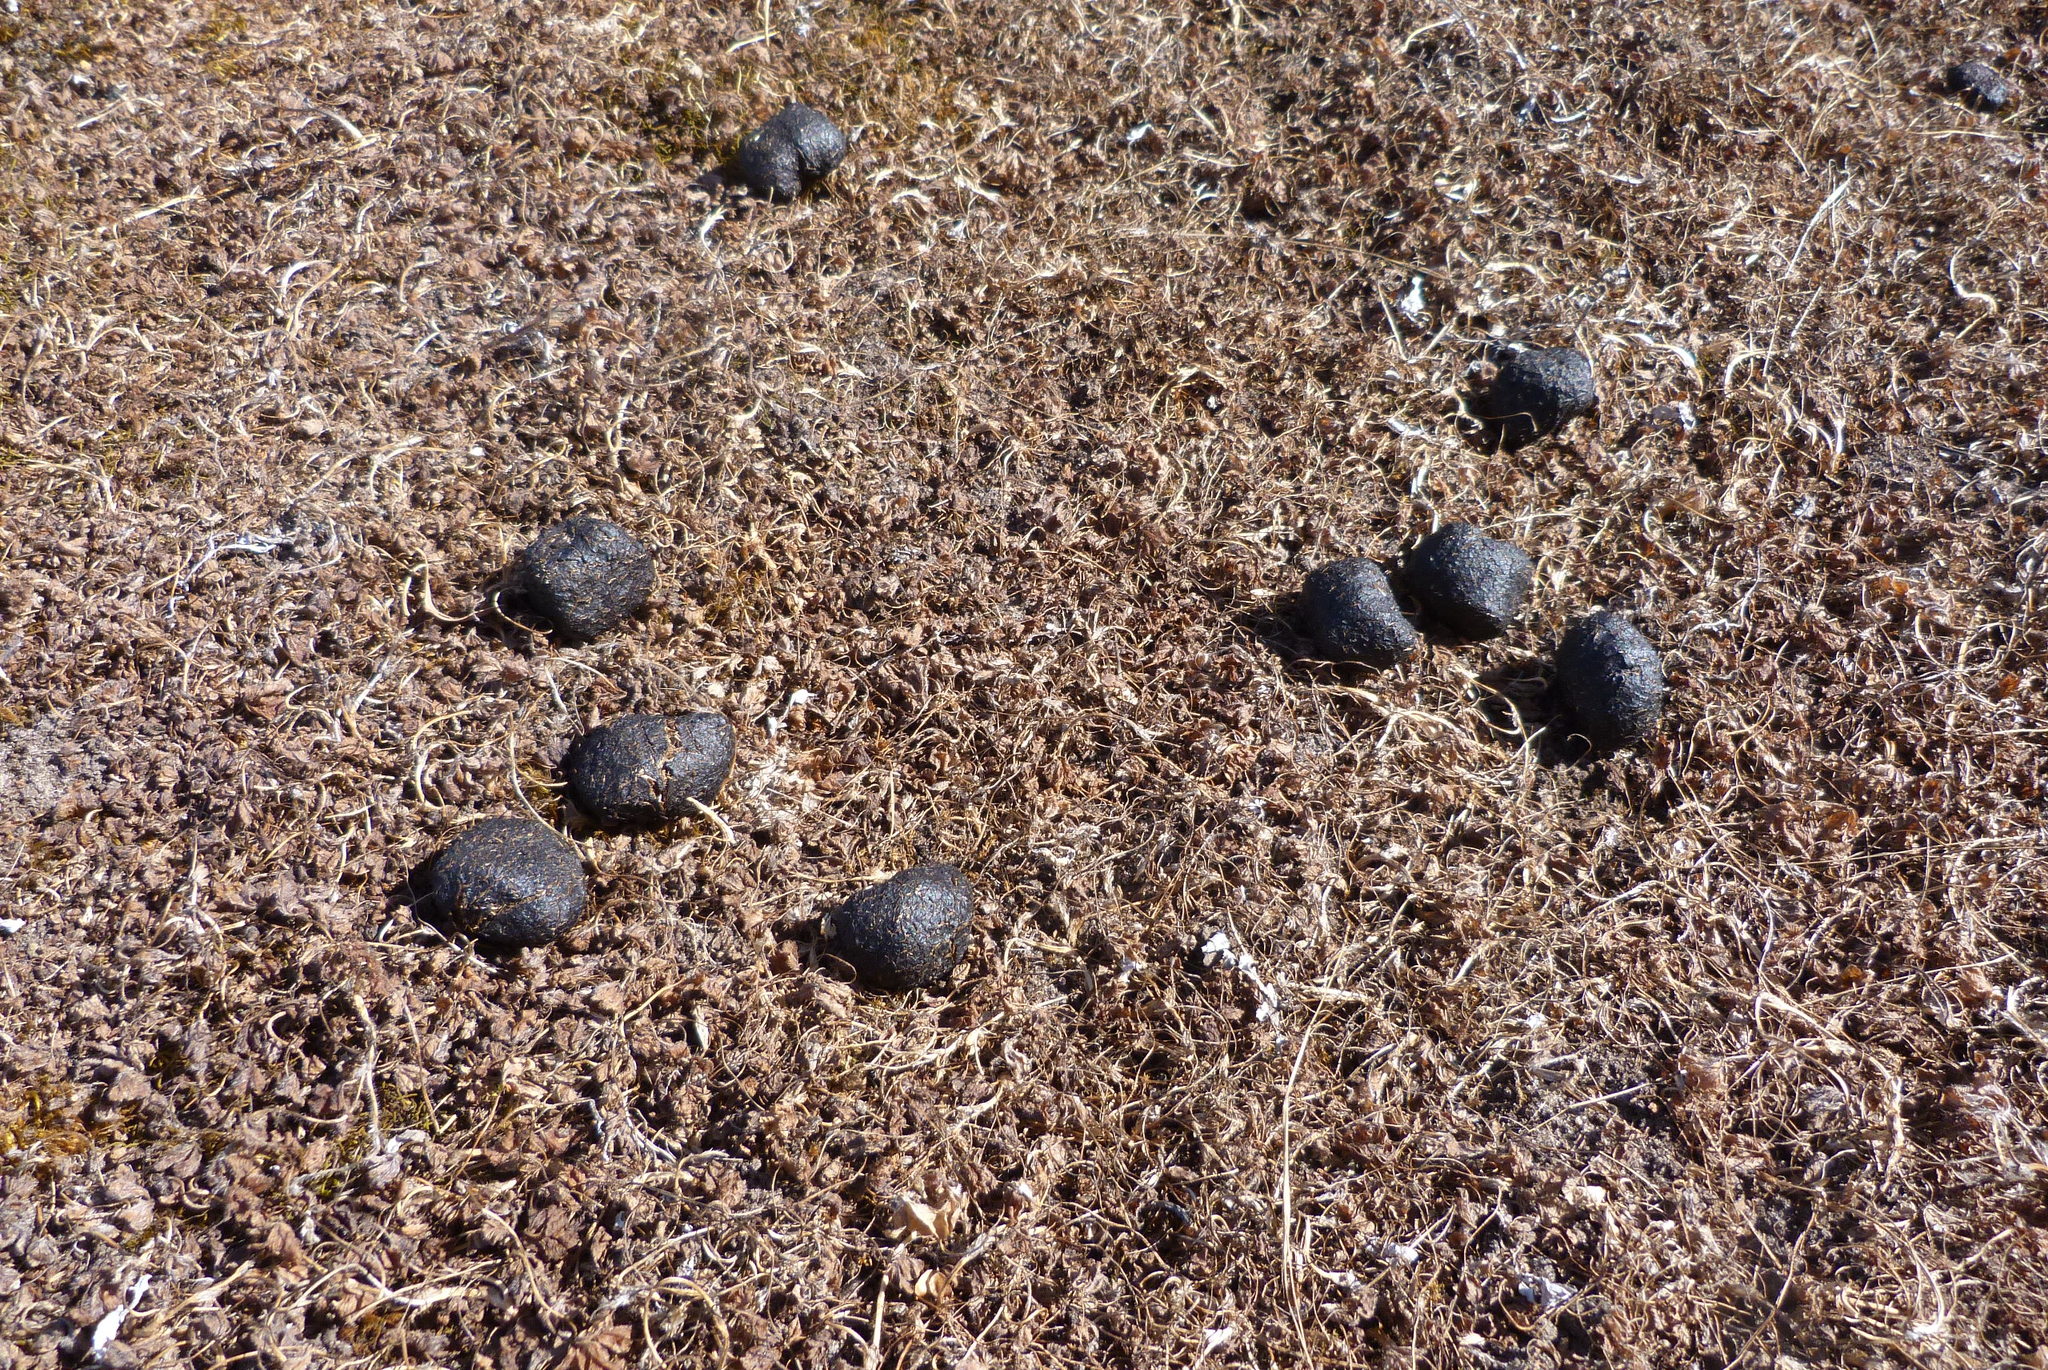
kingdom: Animalia
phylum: Chordata
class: Mammalia
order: Diprotodontia
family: Macropodidae
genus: Macropus
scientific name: Macropus fuliginosus
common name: Western grey kangaroo
